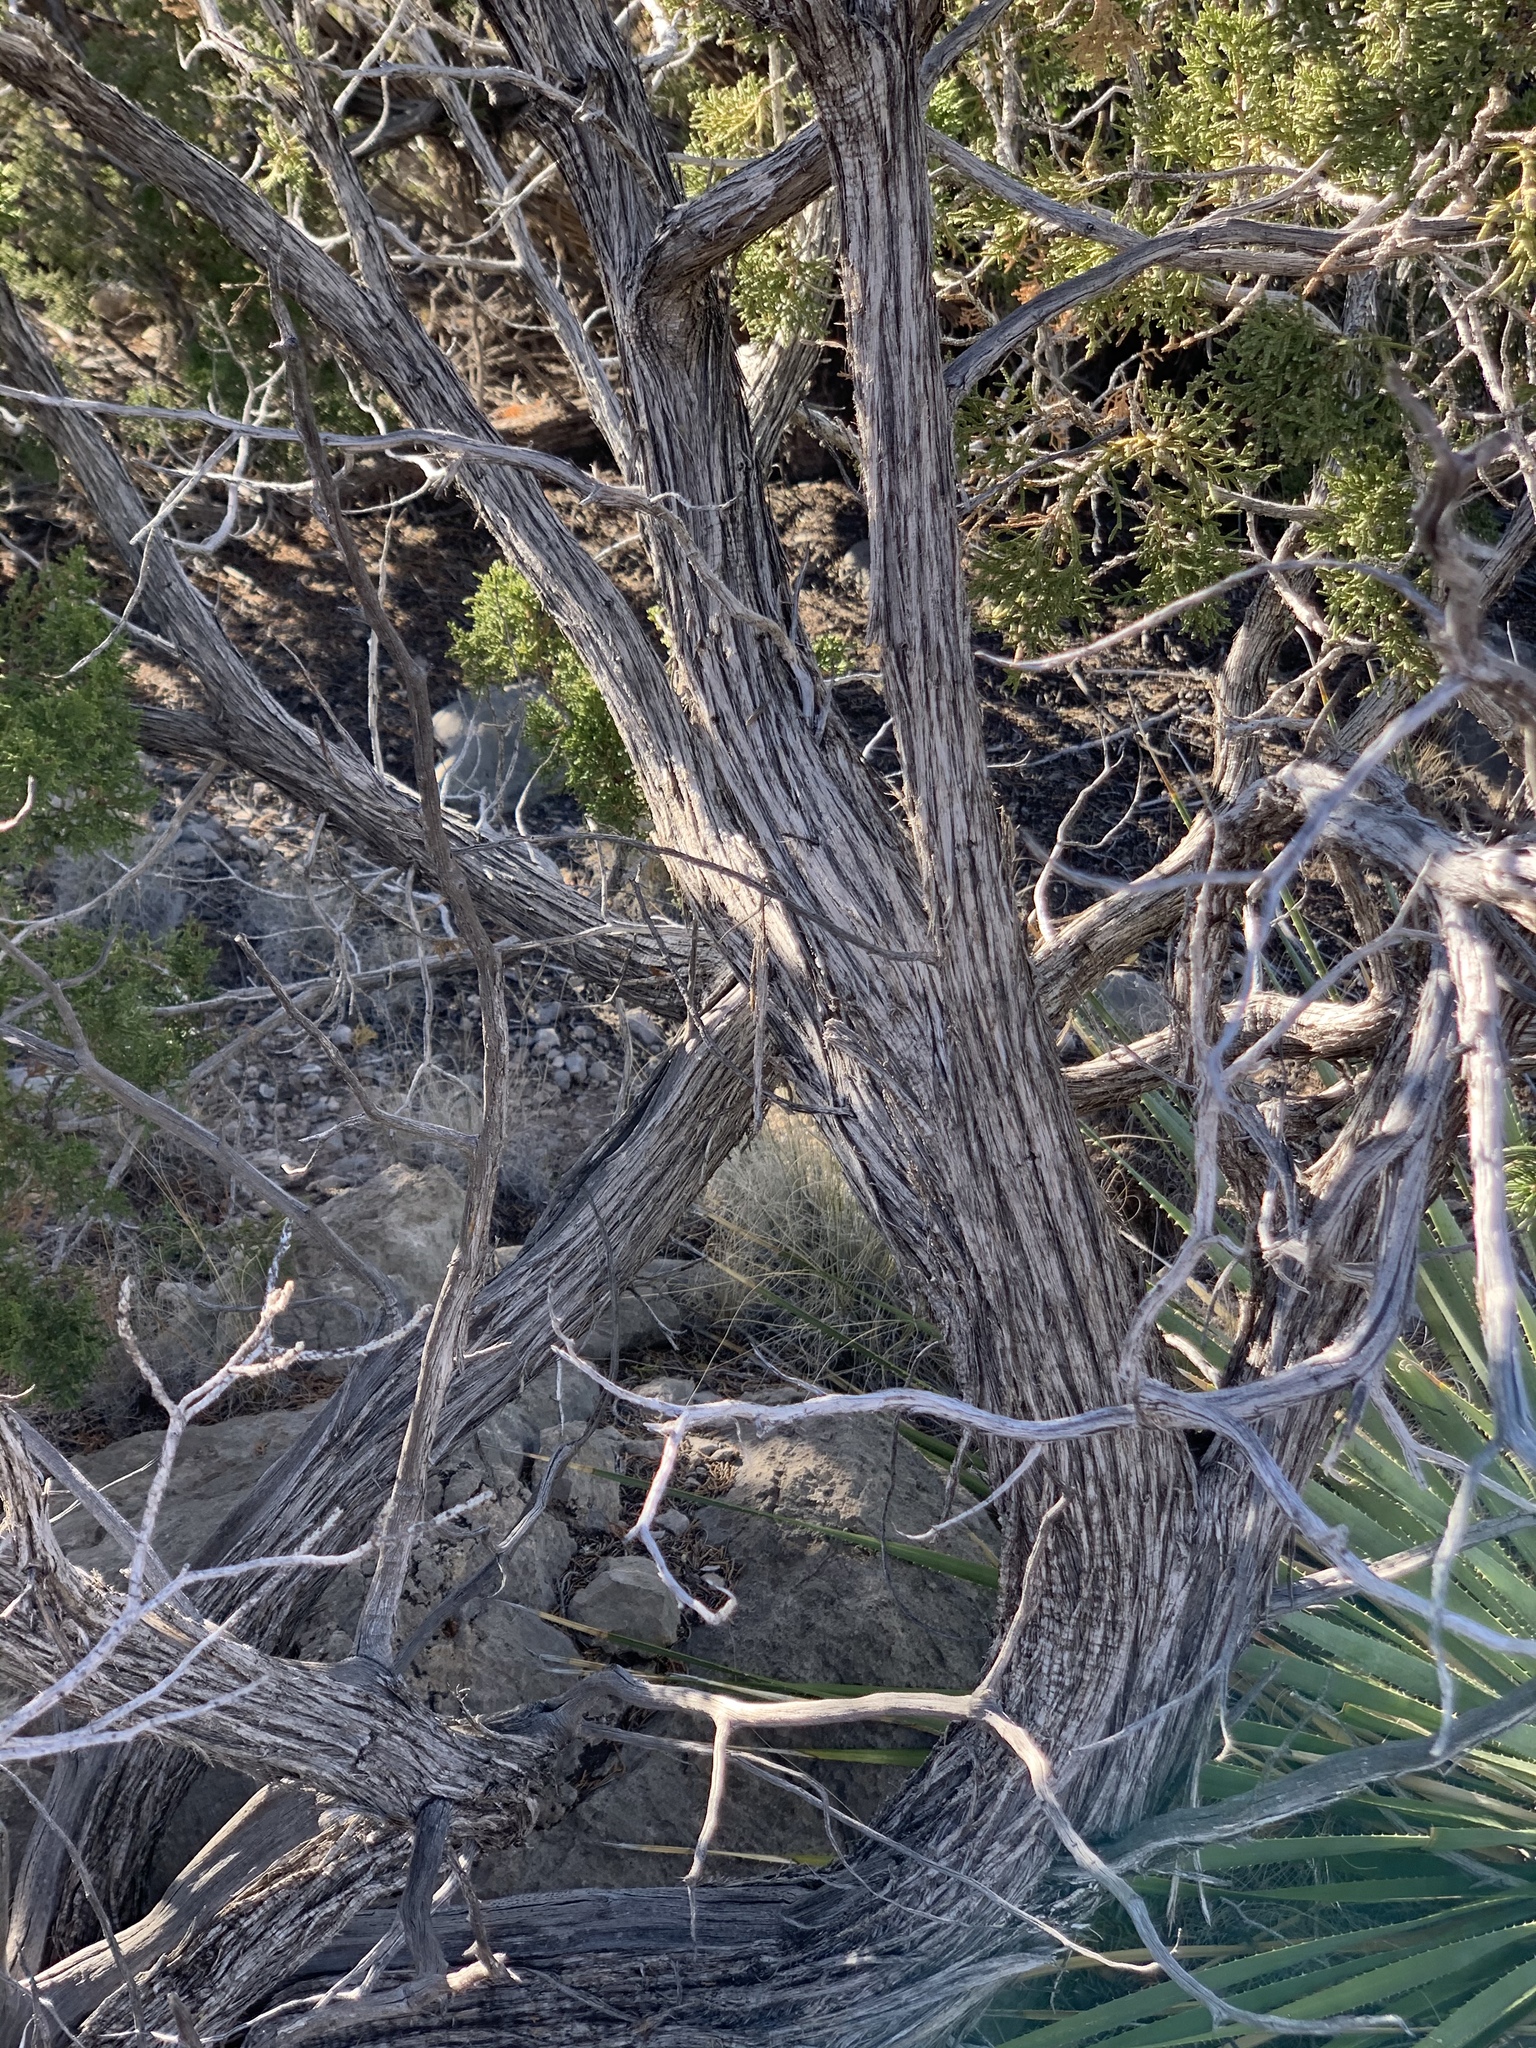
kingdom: Plantae
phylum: Tracheophyta
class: Pinopsida
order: Pinales
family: Cupressaceae
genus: Juniperus
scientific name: Juniperus monosperma
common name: One-seed juniper
